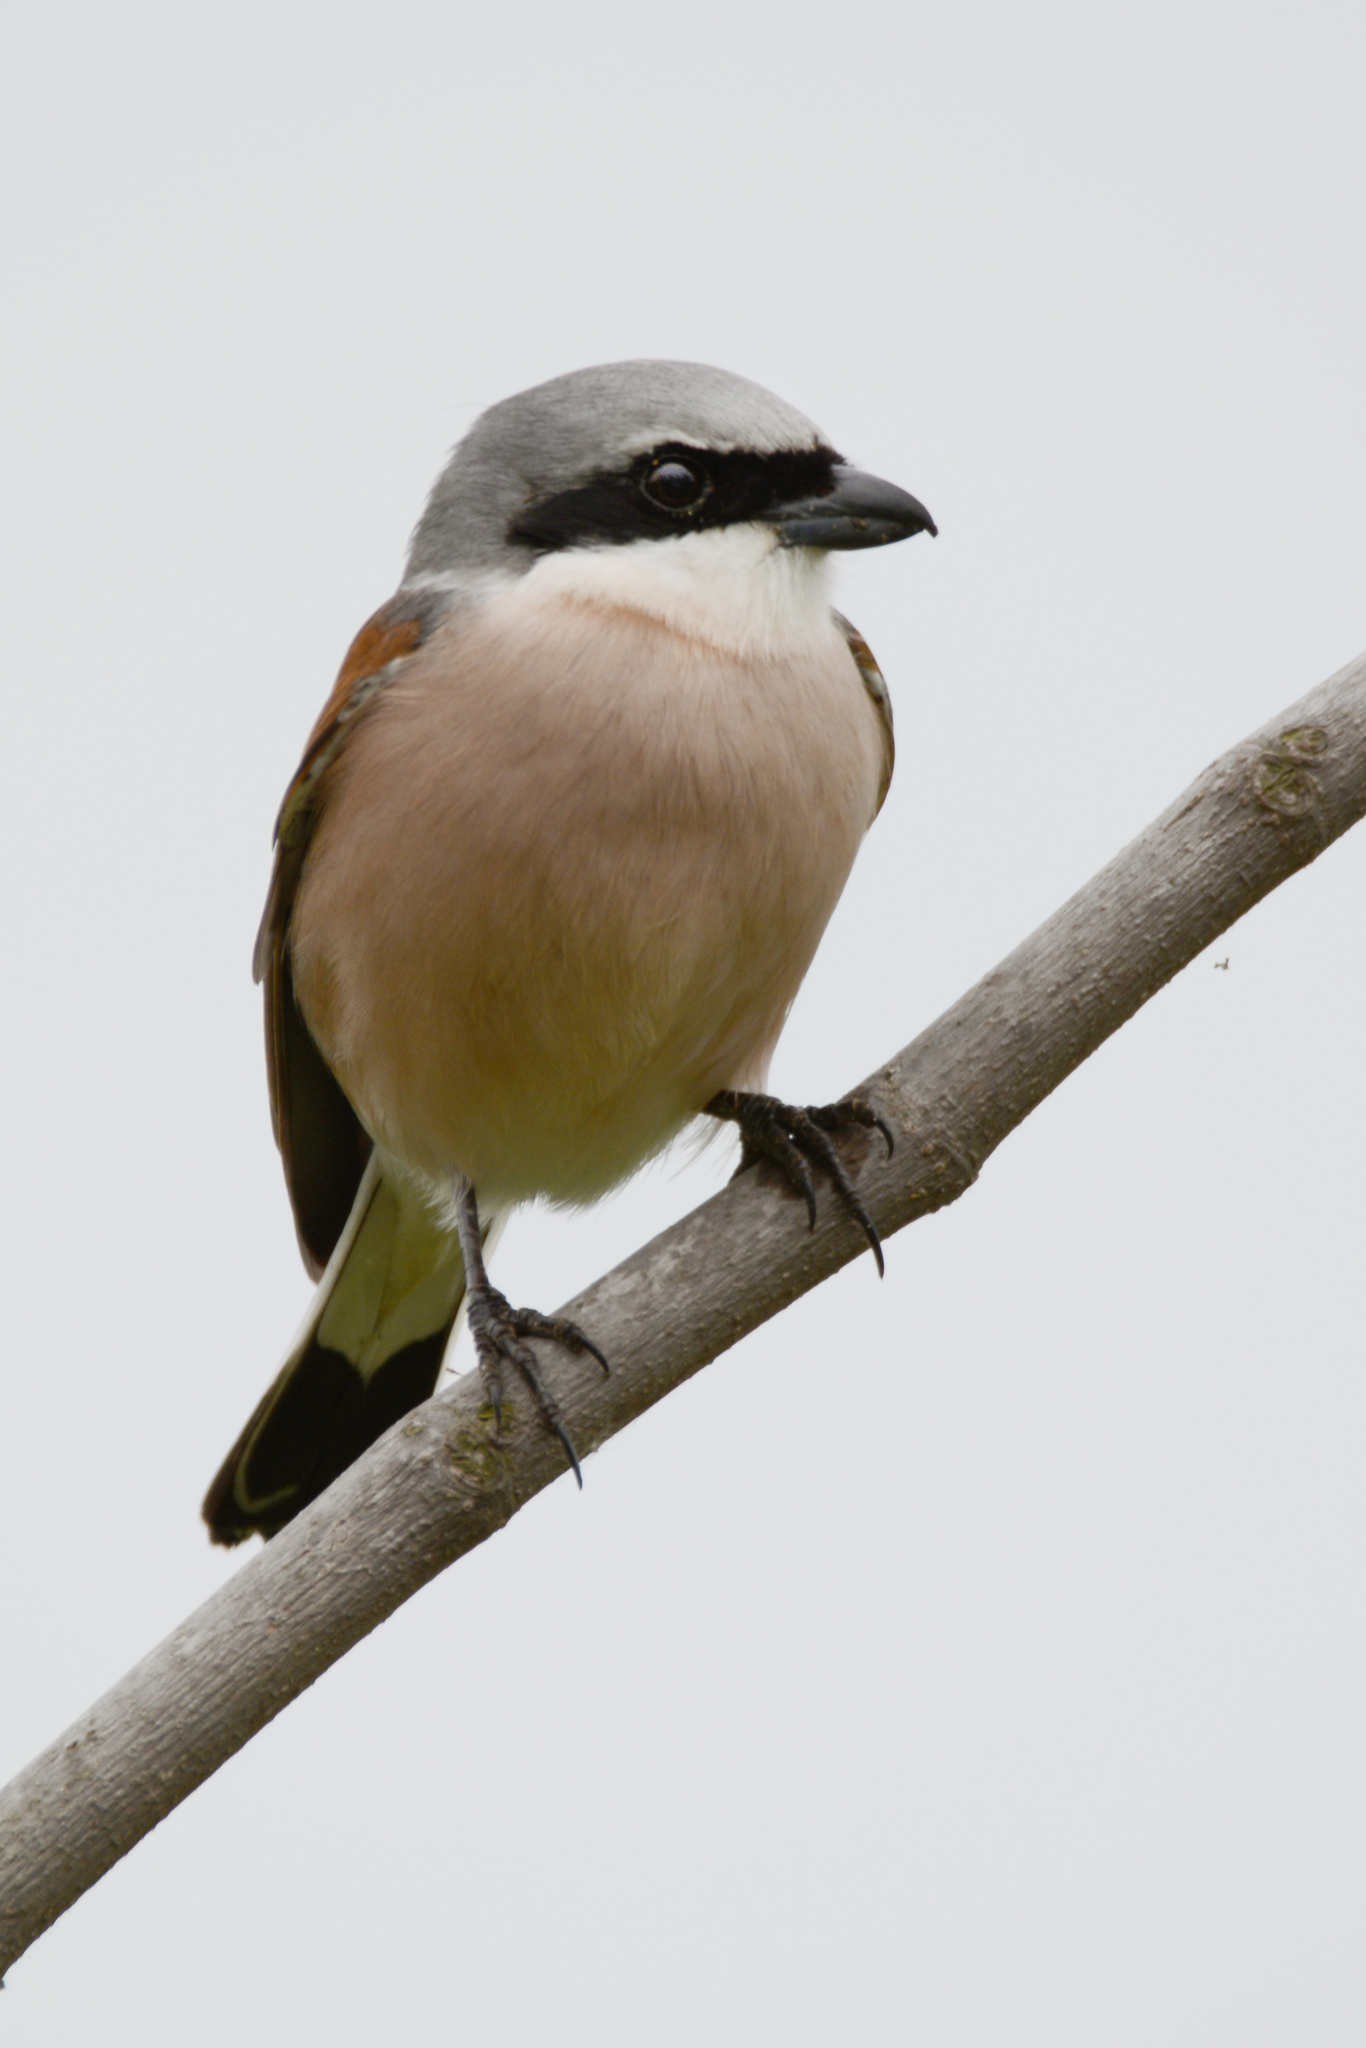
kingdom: Animalia
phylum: Chordata
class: Aves
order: Passeriformes
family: Laniidae
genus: Lanius
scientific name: Lanius collurio
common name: Red-backed shrike
